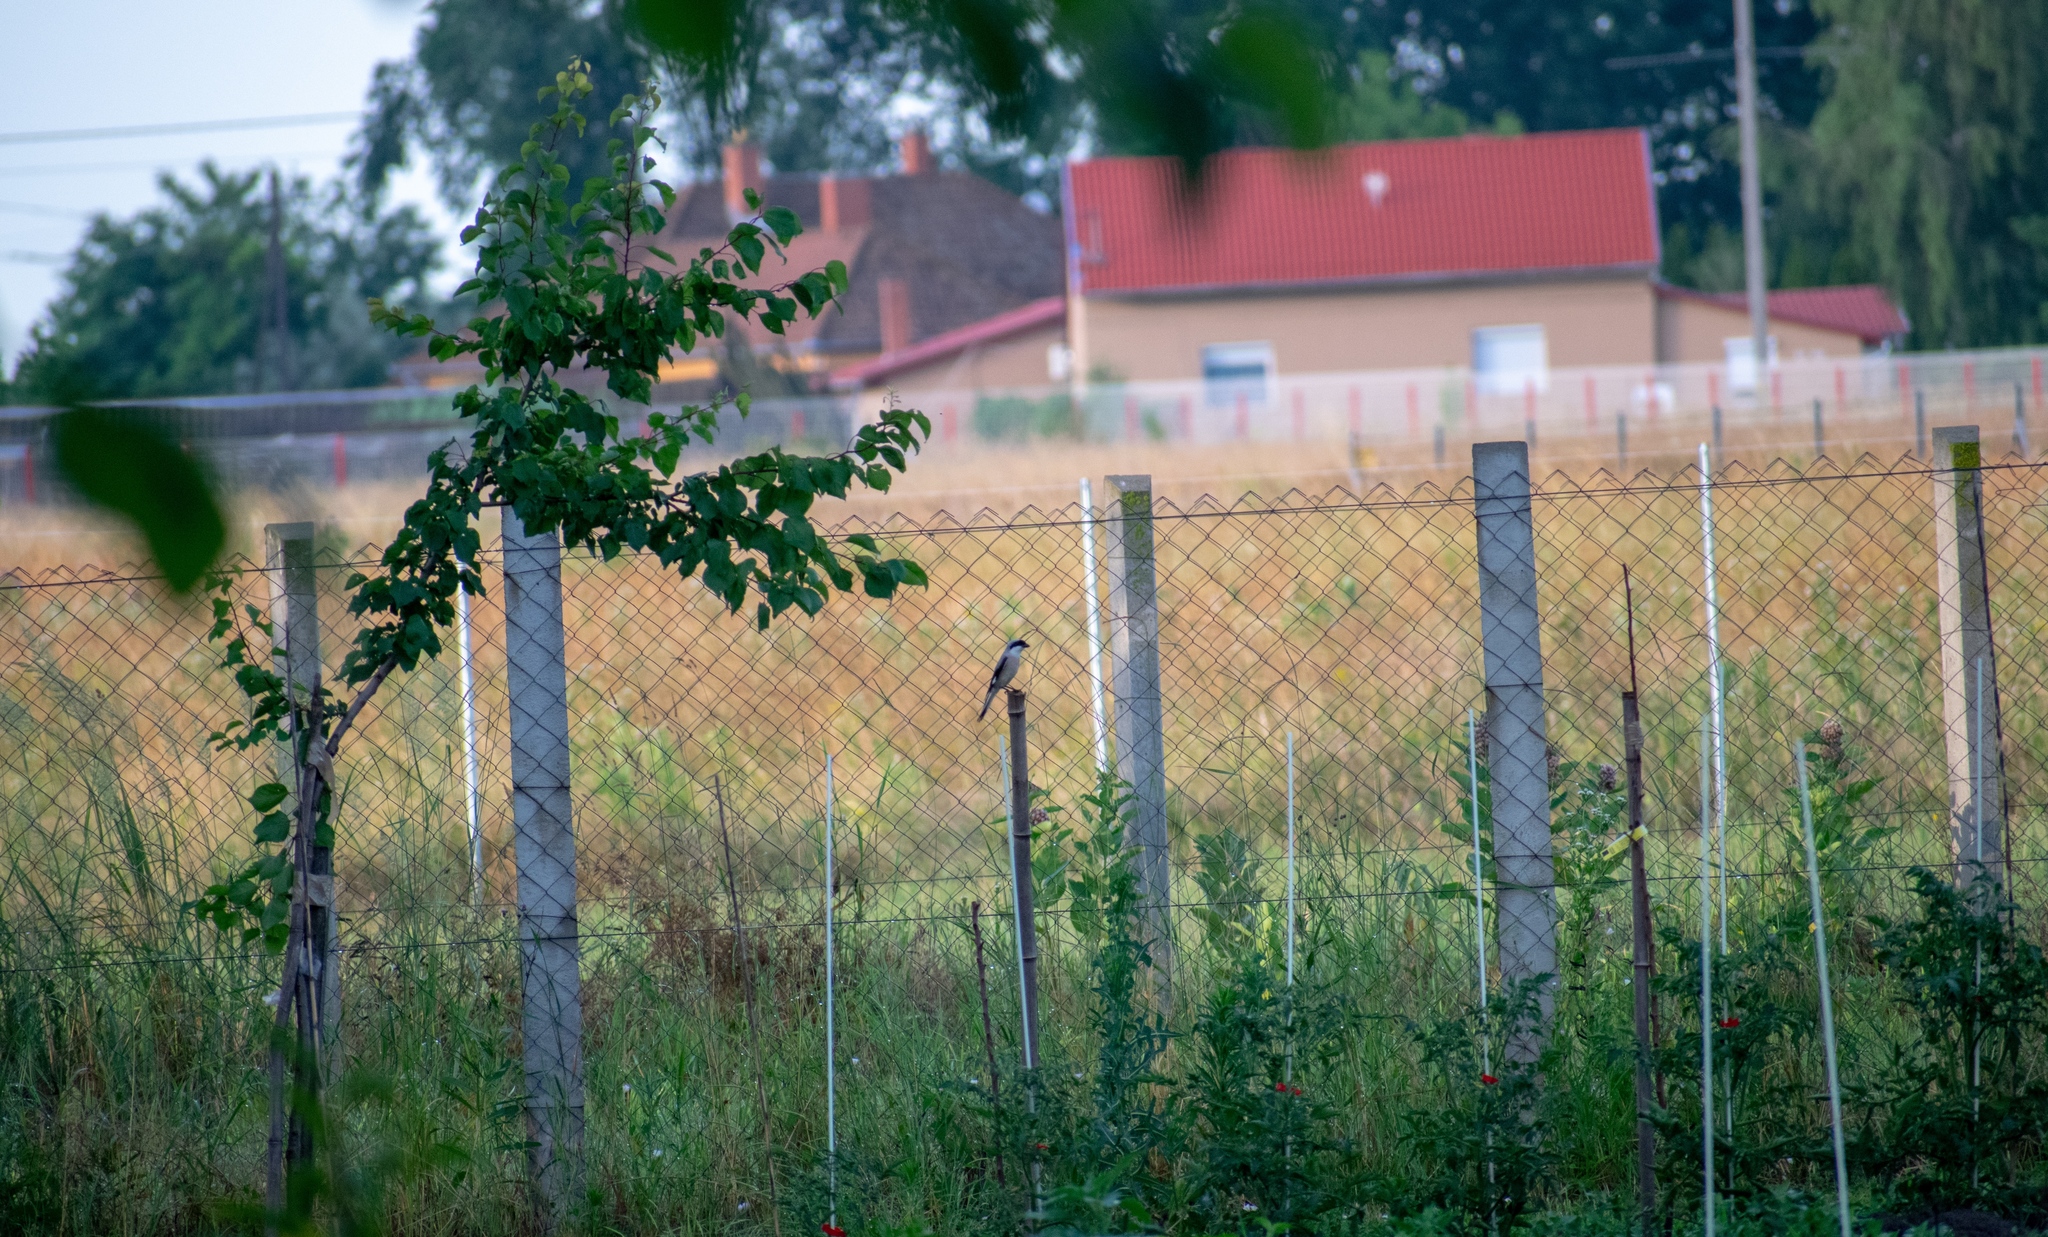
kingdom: Animalia
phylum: Chordata
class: Aves
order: Passeriformes
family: Laniidae
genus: Lanius
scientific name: Lanius collurio
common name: Red-backed shrike
